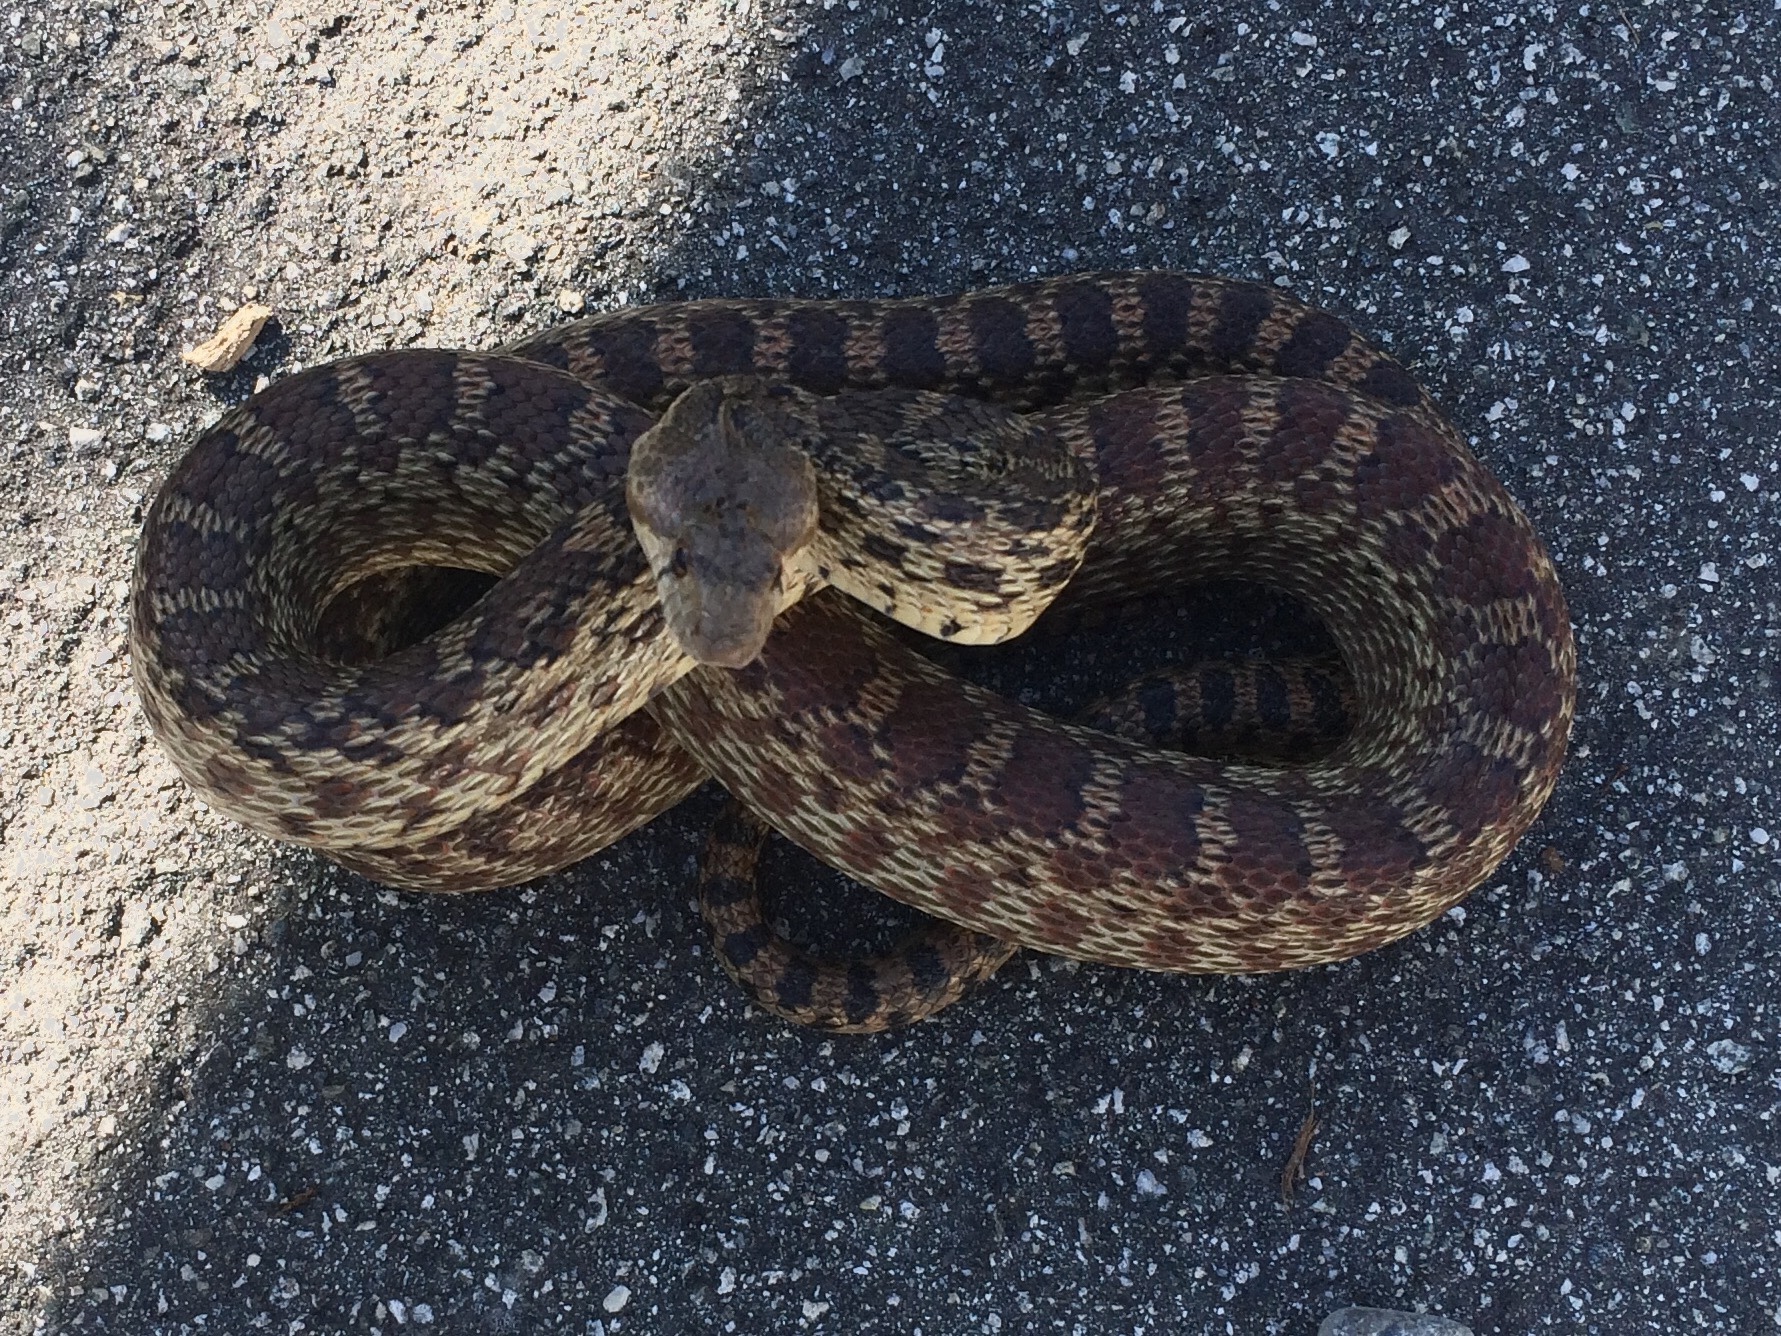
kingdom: Animalia
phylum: Chordata
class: Squamata
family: Colubridae
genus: Pituophis
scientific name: Pituophis catenifer
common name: Gopher snake
